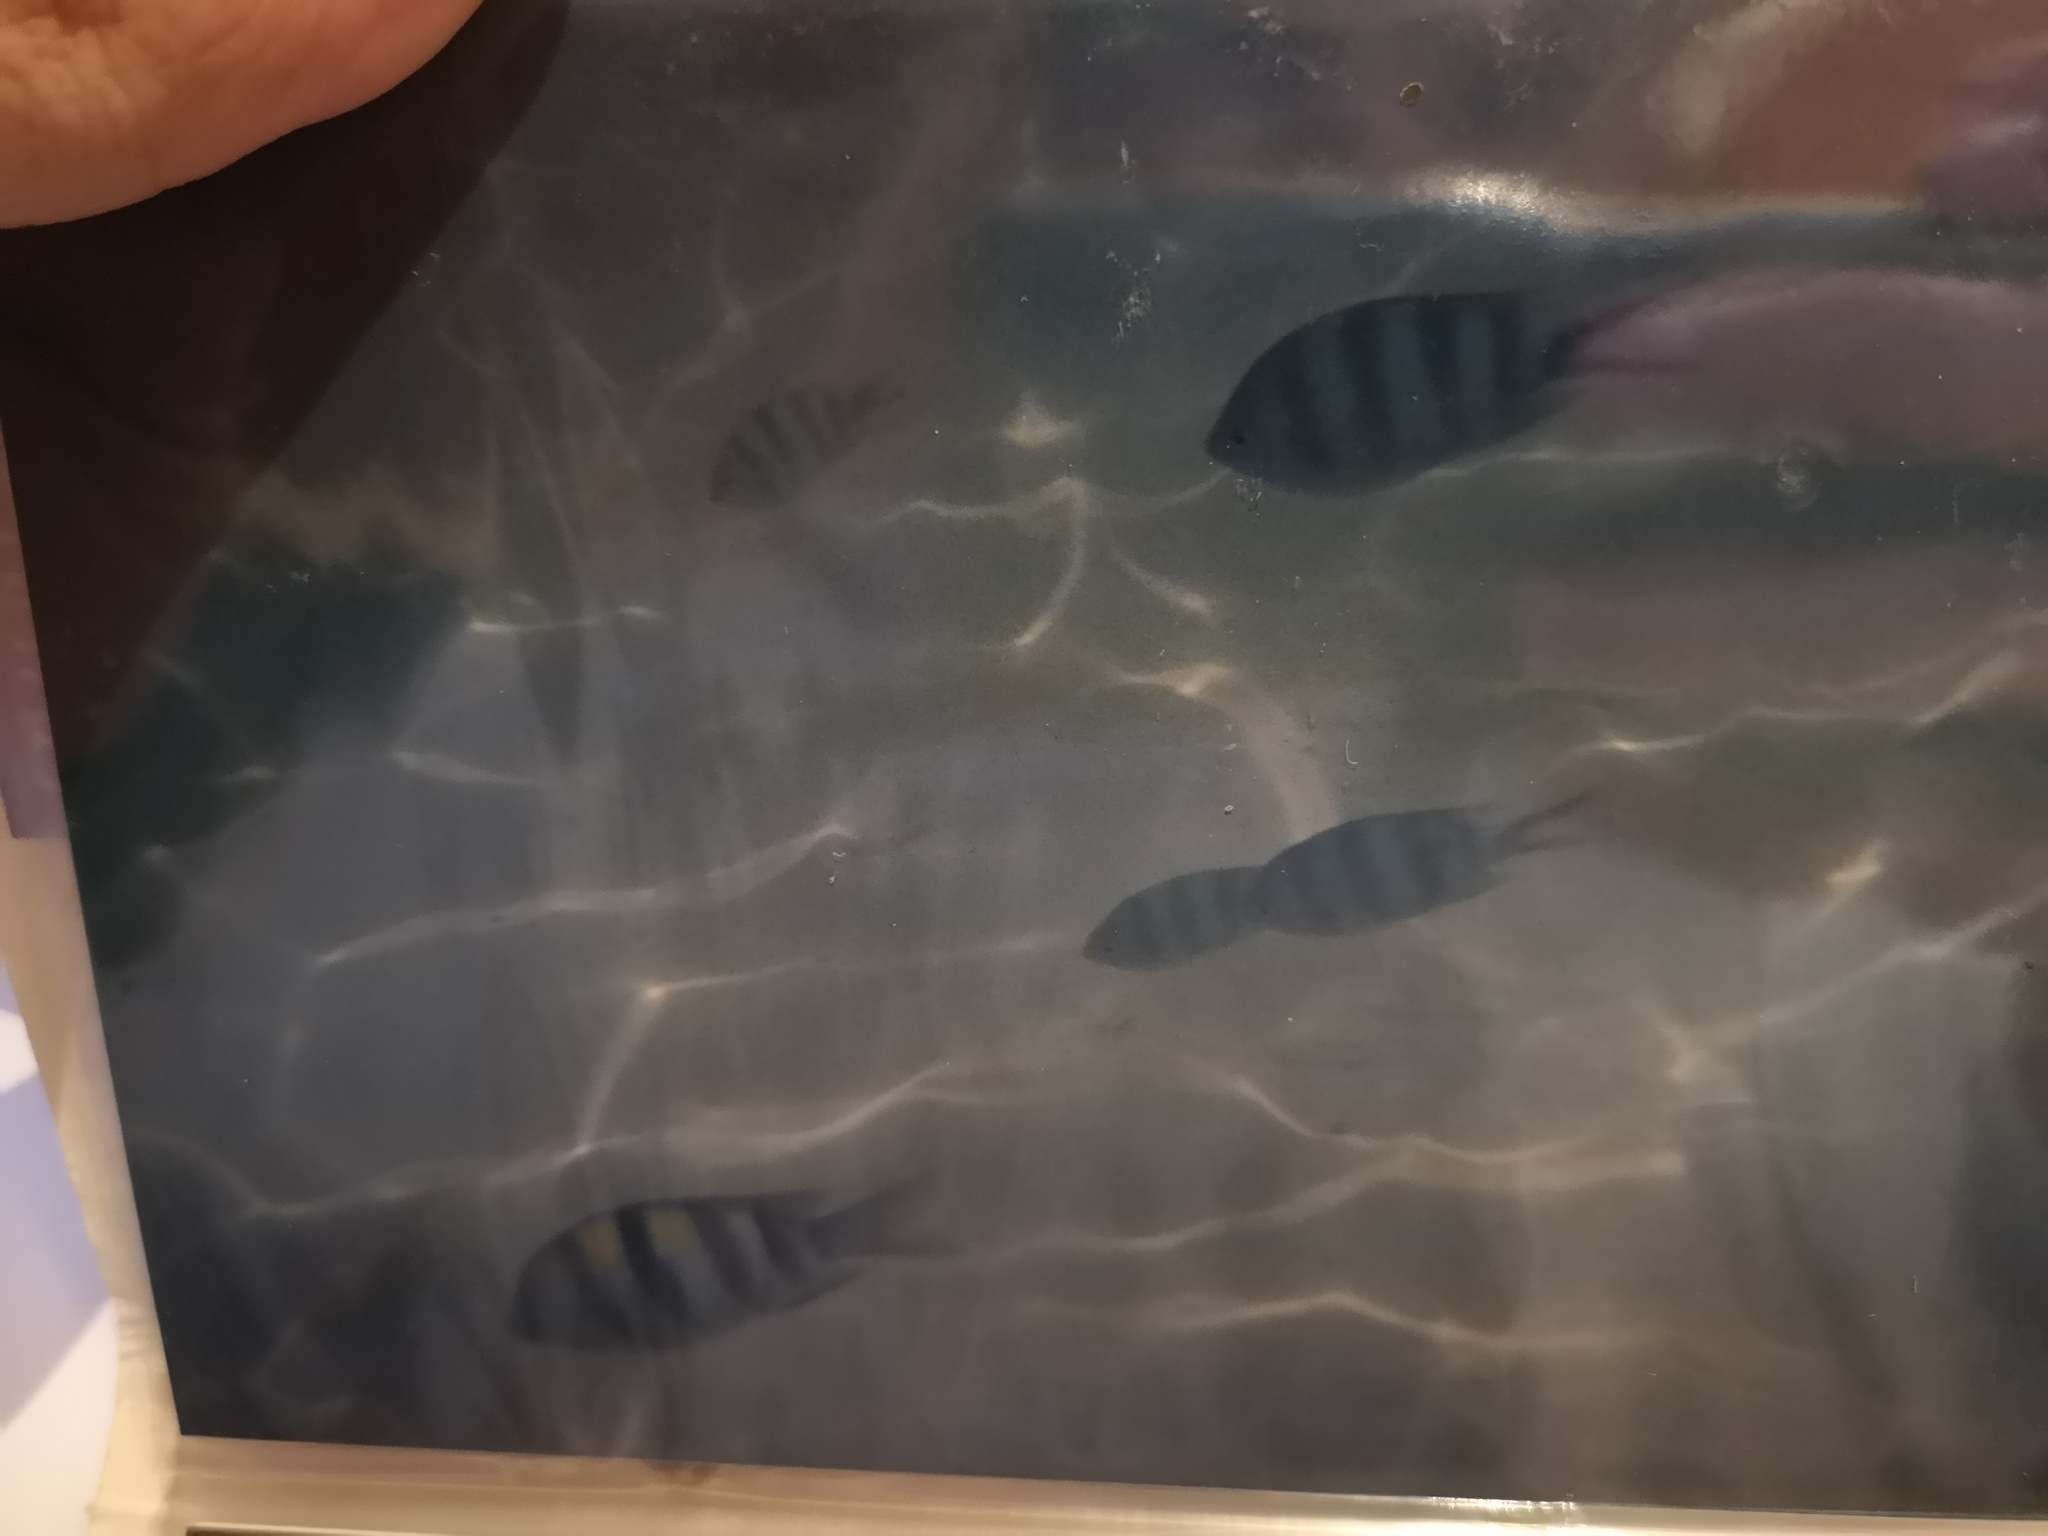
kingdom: Animalia
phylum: Chordata
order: Perciformes
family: Pomacentridae
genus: Abudefduf
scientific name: Abudefduf sexfasciatus
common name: Scissortail sergeant
